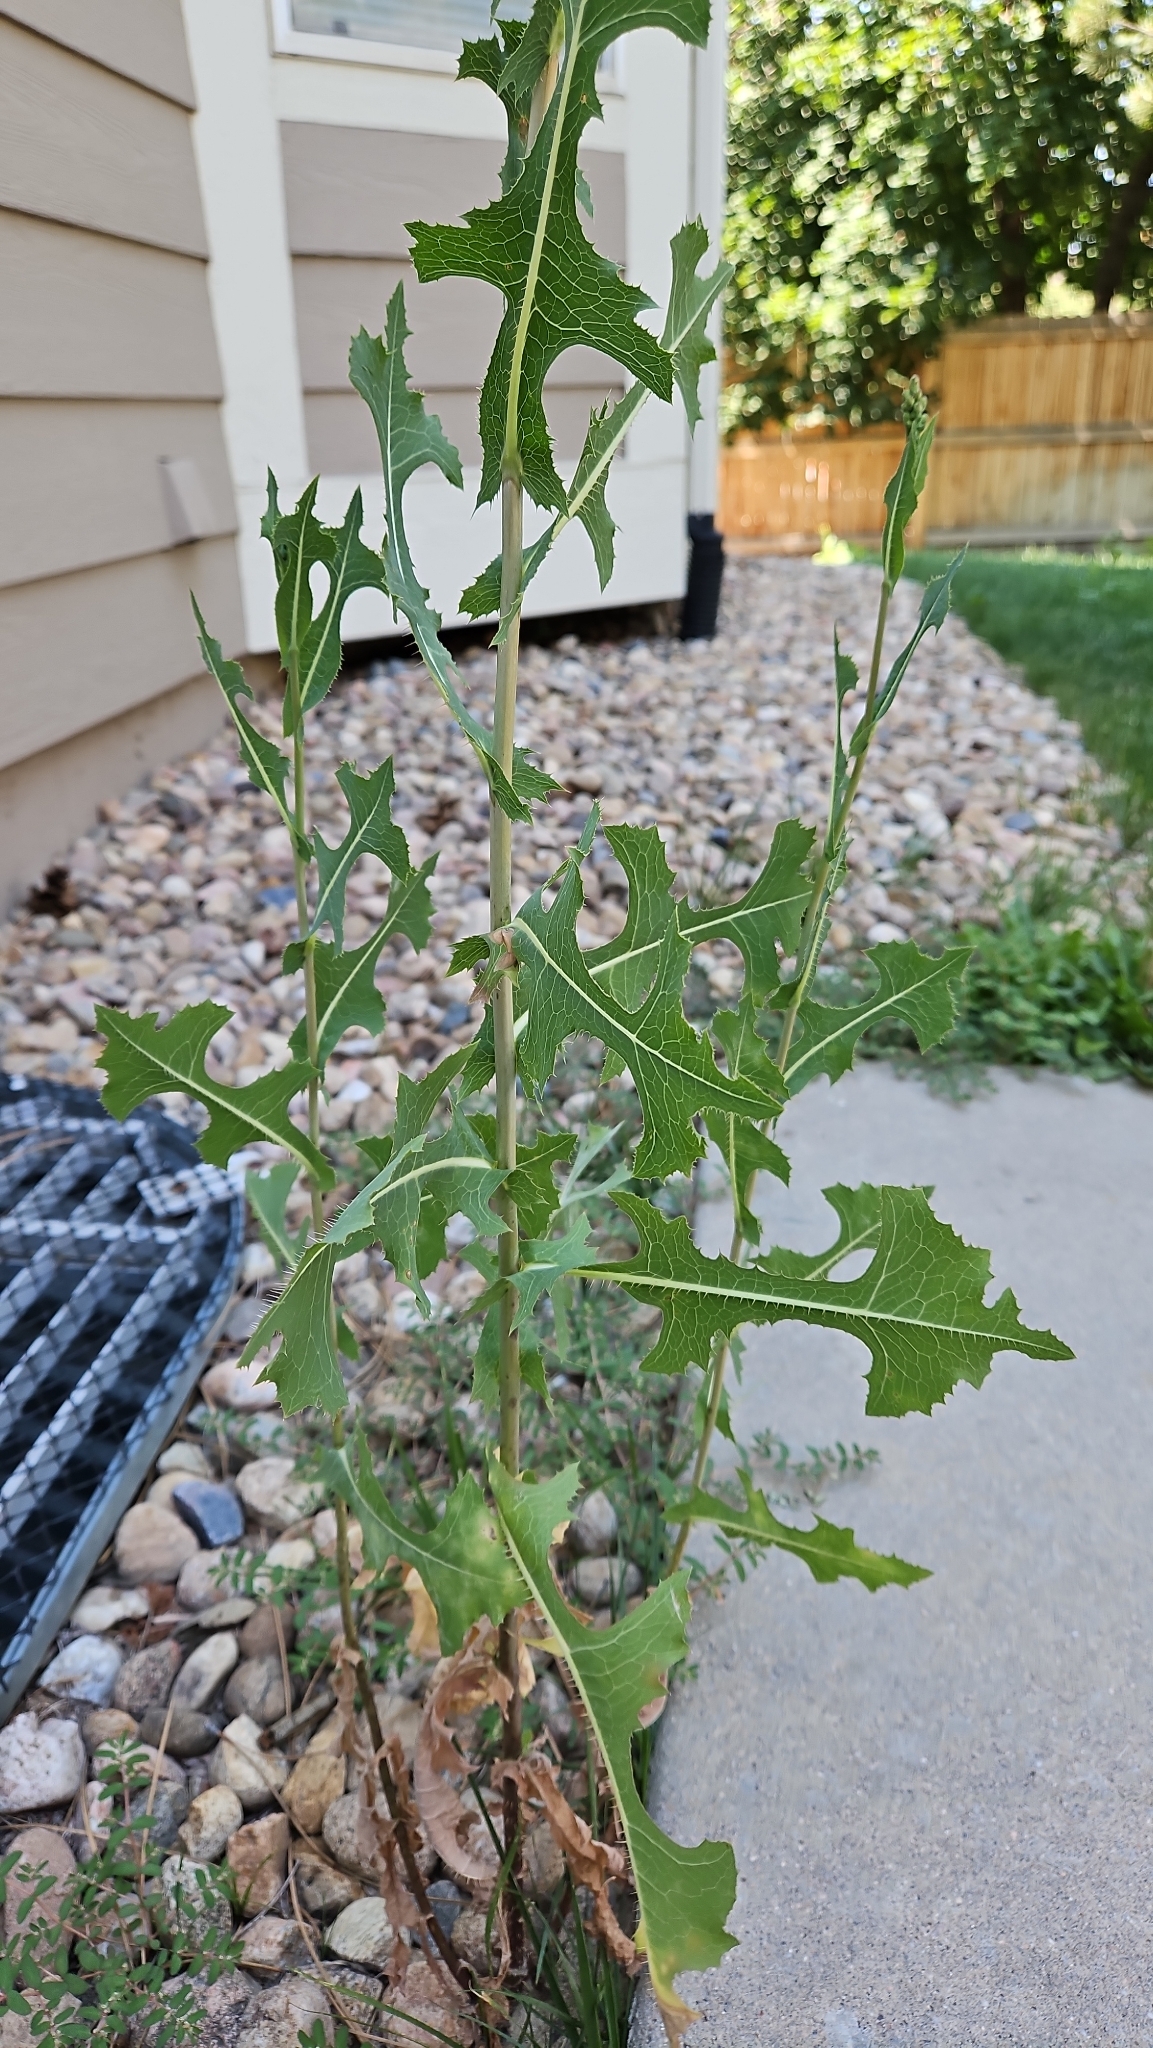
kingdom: Plantae
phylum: Tracheophyta
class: Magnoliopsida
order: Asterales
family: Asteraceae
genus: Lactuca
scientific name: Lactuca serriola
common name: Prickly lettuce
